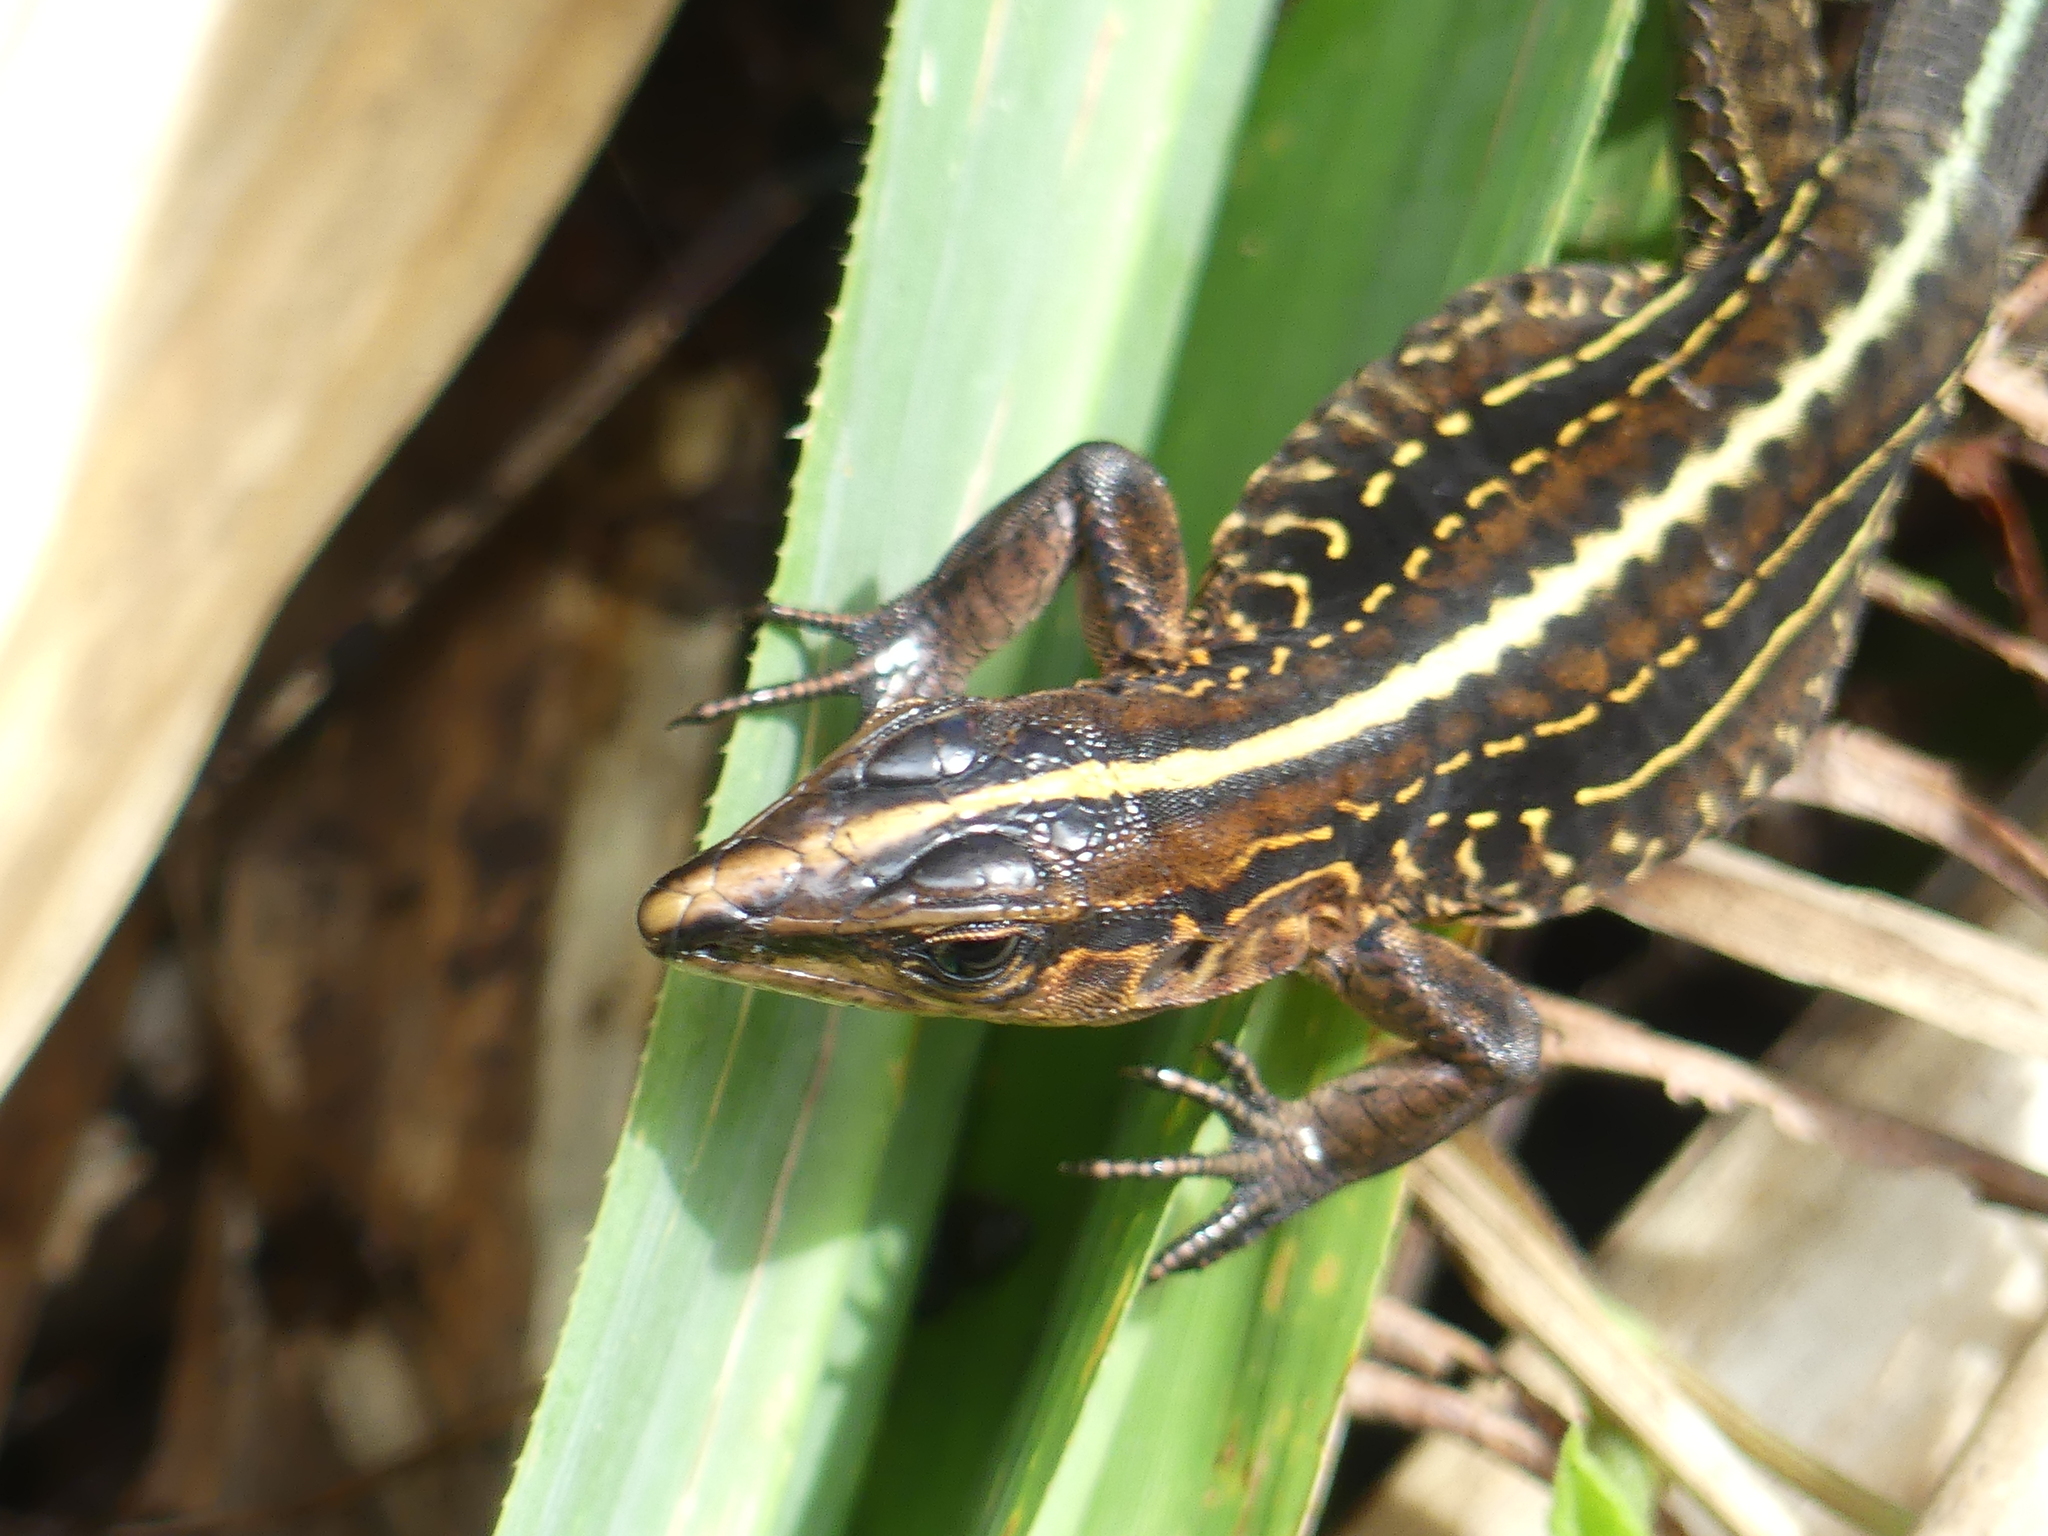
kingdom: Animalia
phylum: Chordata
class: Squamata
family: Teiidae
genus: Holcosus
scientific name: Holcosus festivus
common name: Middle american ameiva
